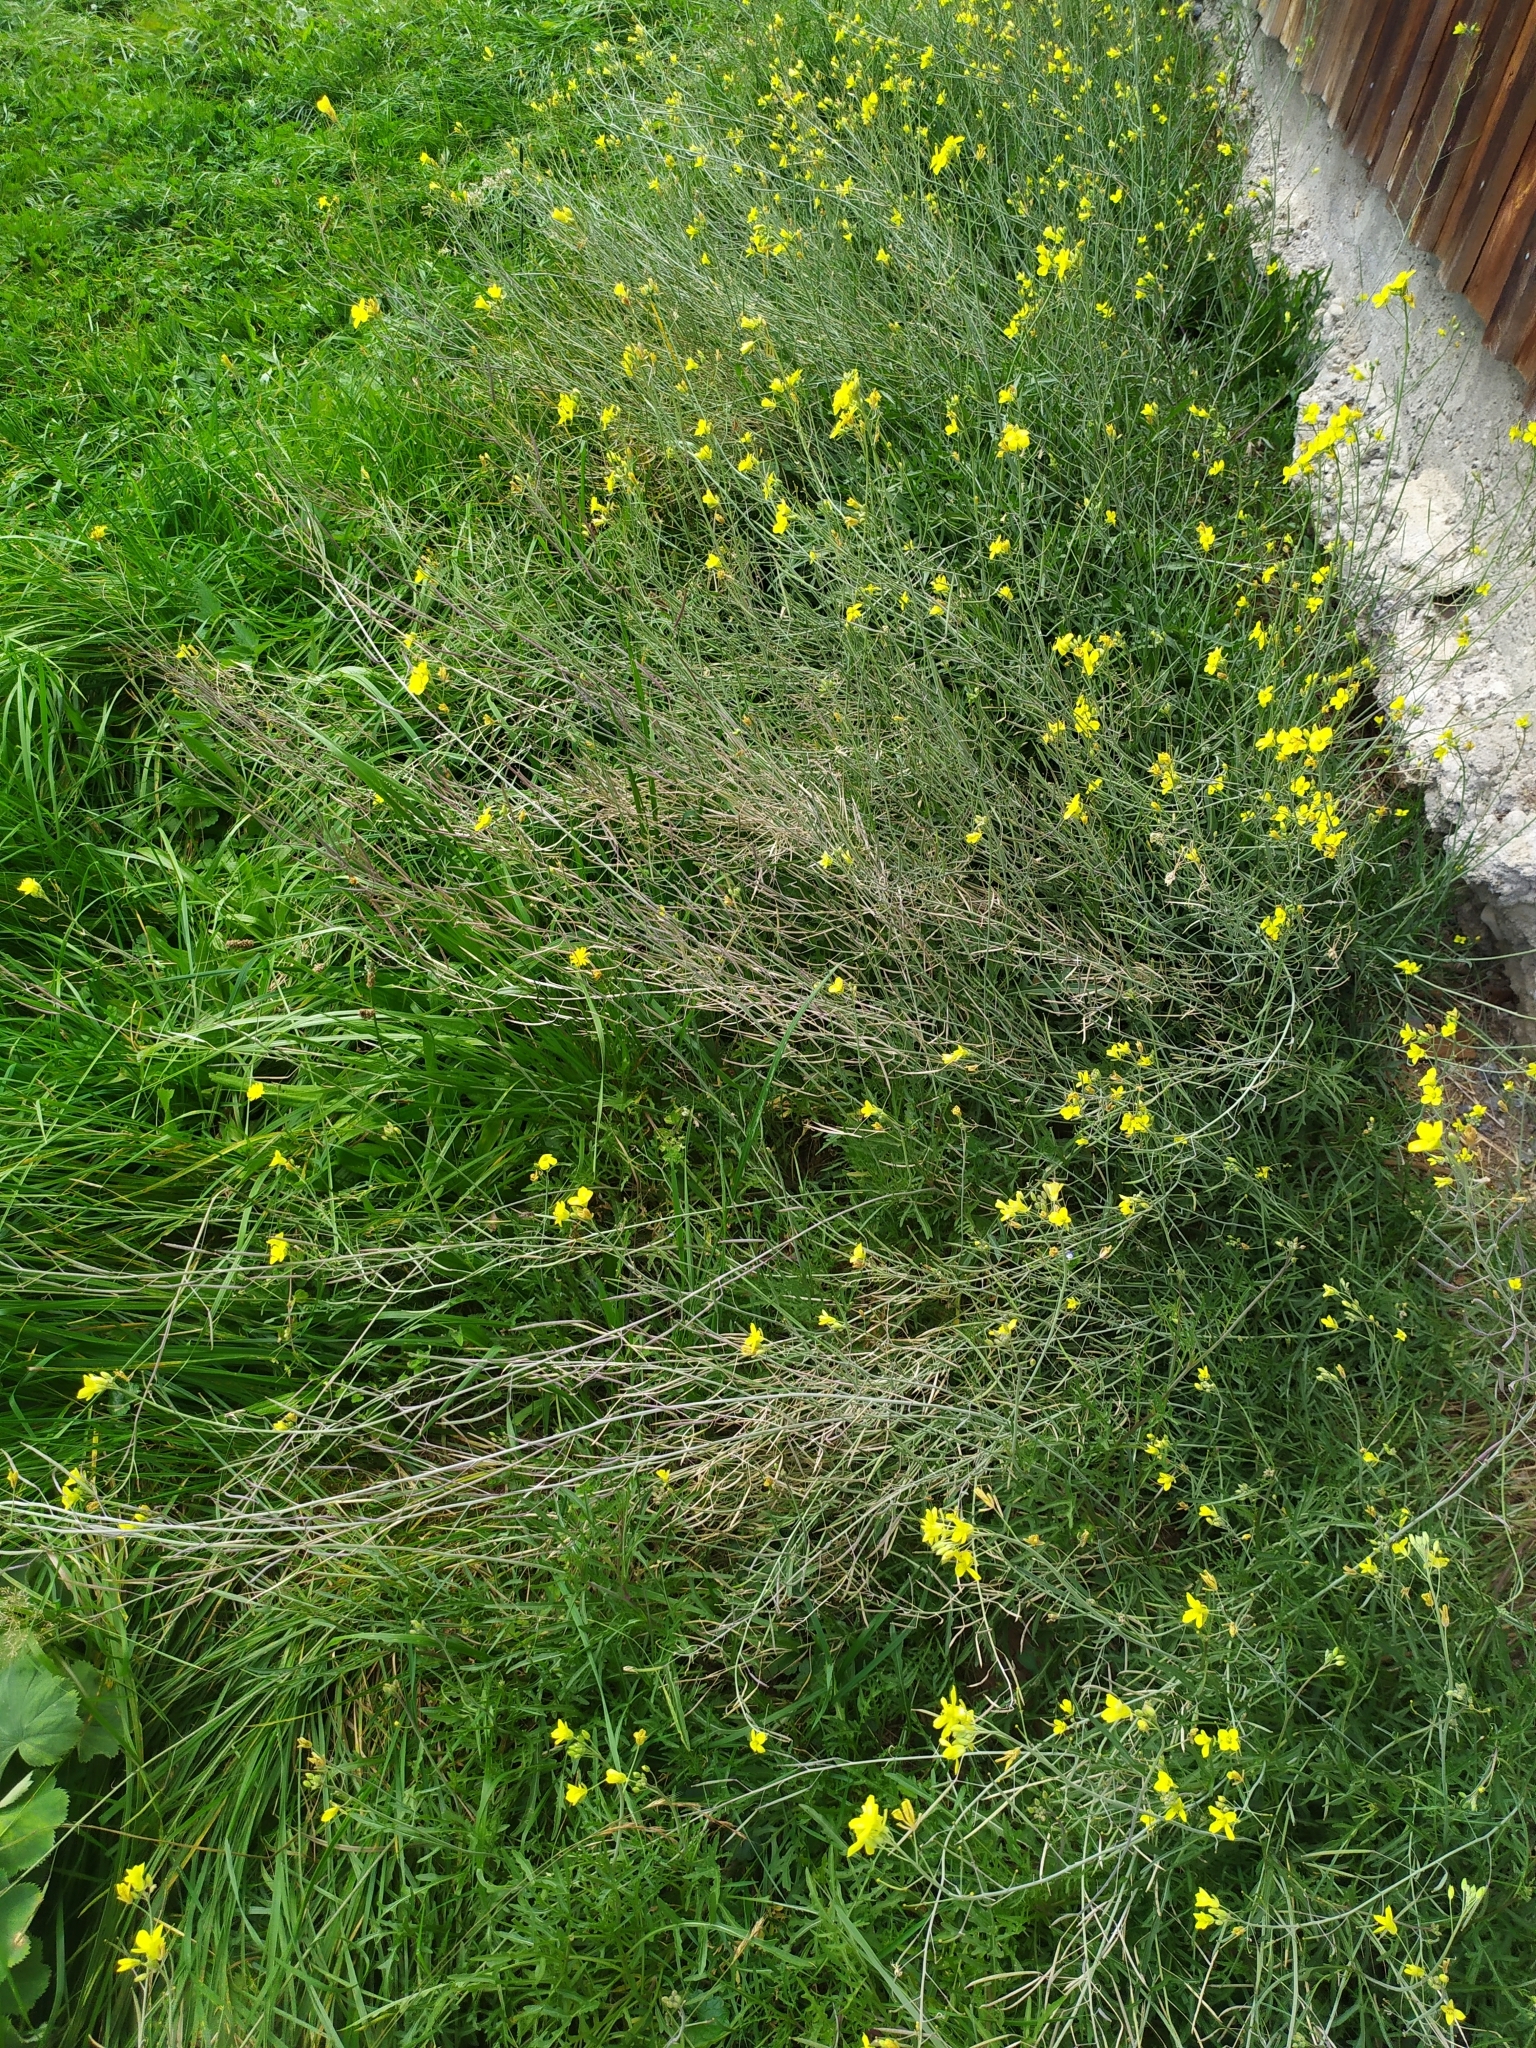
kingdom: Plantae
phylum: Tracheophyta
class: Magnoliopsida
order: Brassicales
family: Brassicaceae
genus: Diplotaxis
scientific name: Diplotaxis tenuifolia
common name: Perennial wall-rocket
